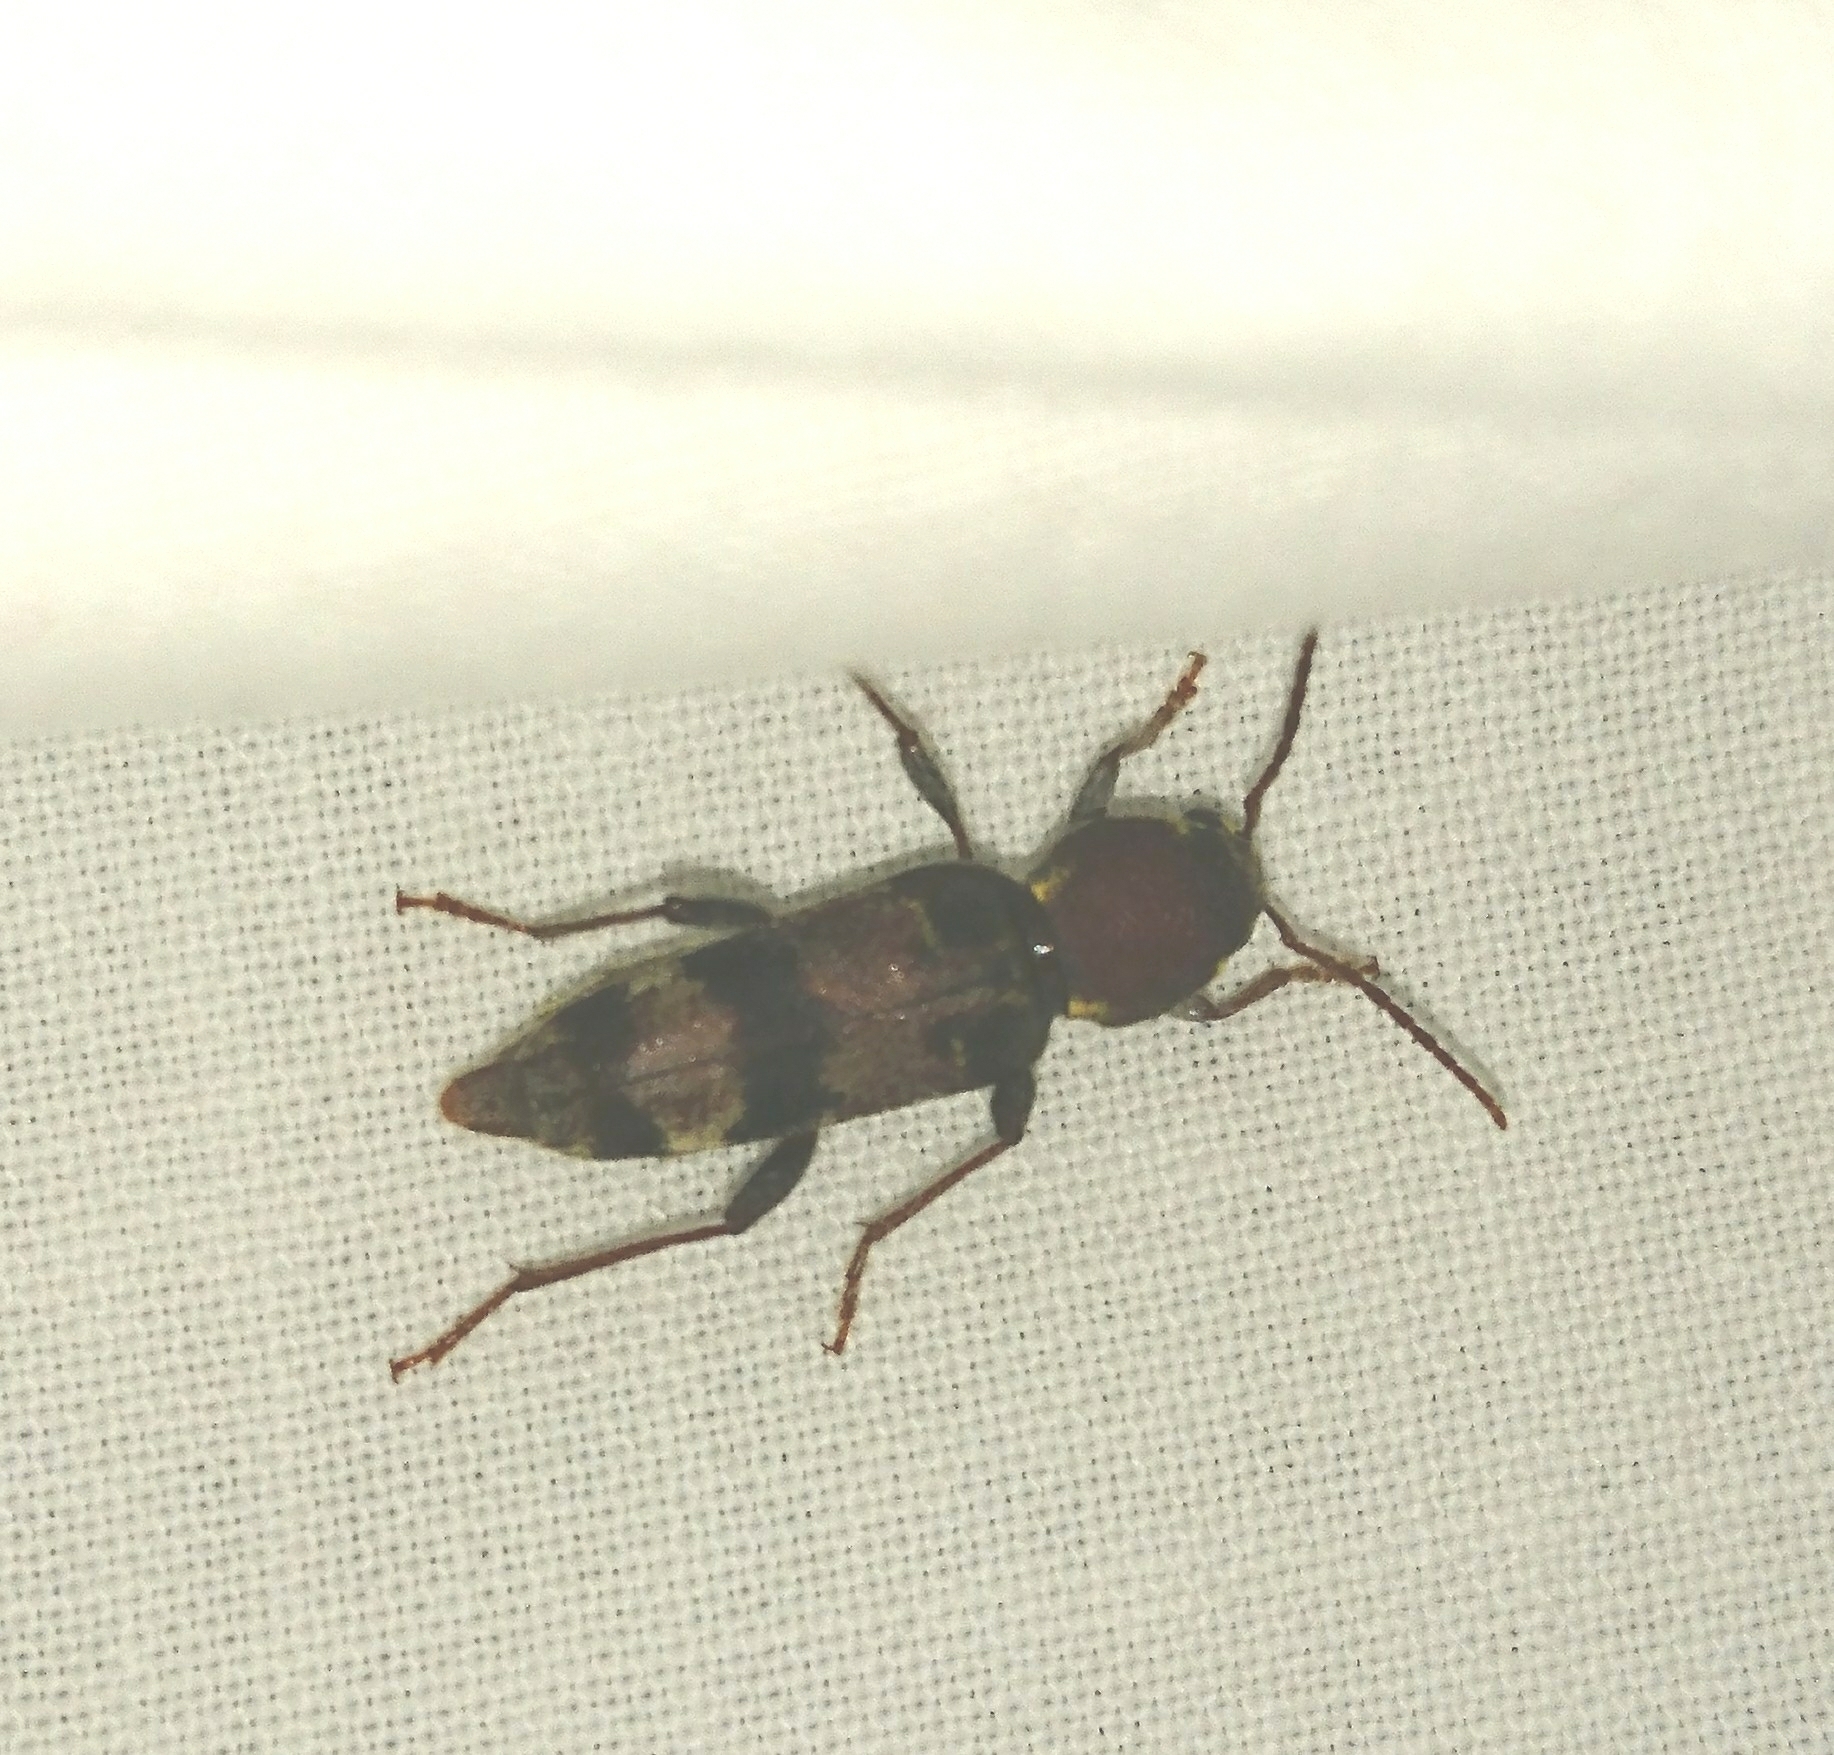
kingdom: Animalia
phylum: Arthropoda
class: Insecta
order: Coleoptera
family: Cerambycidae
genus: Xylotrechus
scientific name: Xylotrechus colonus
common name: Long-horned beetle
